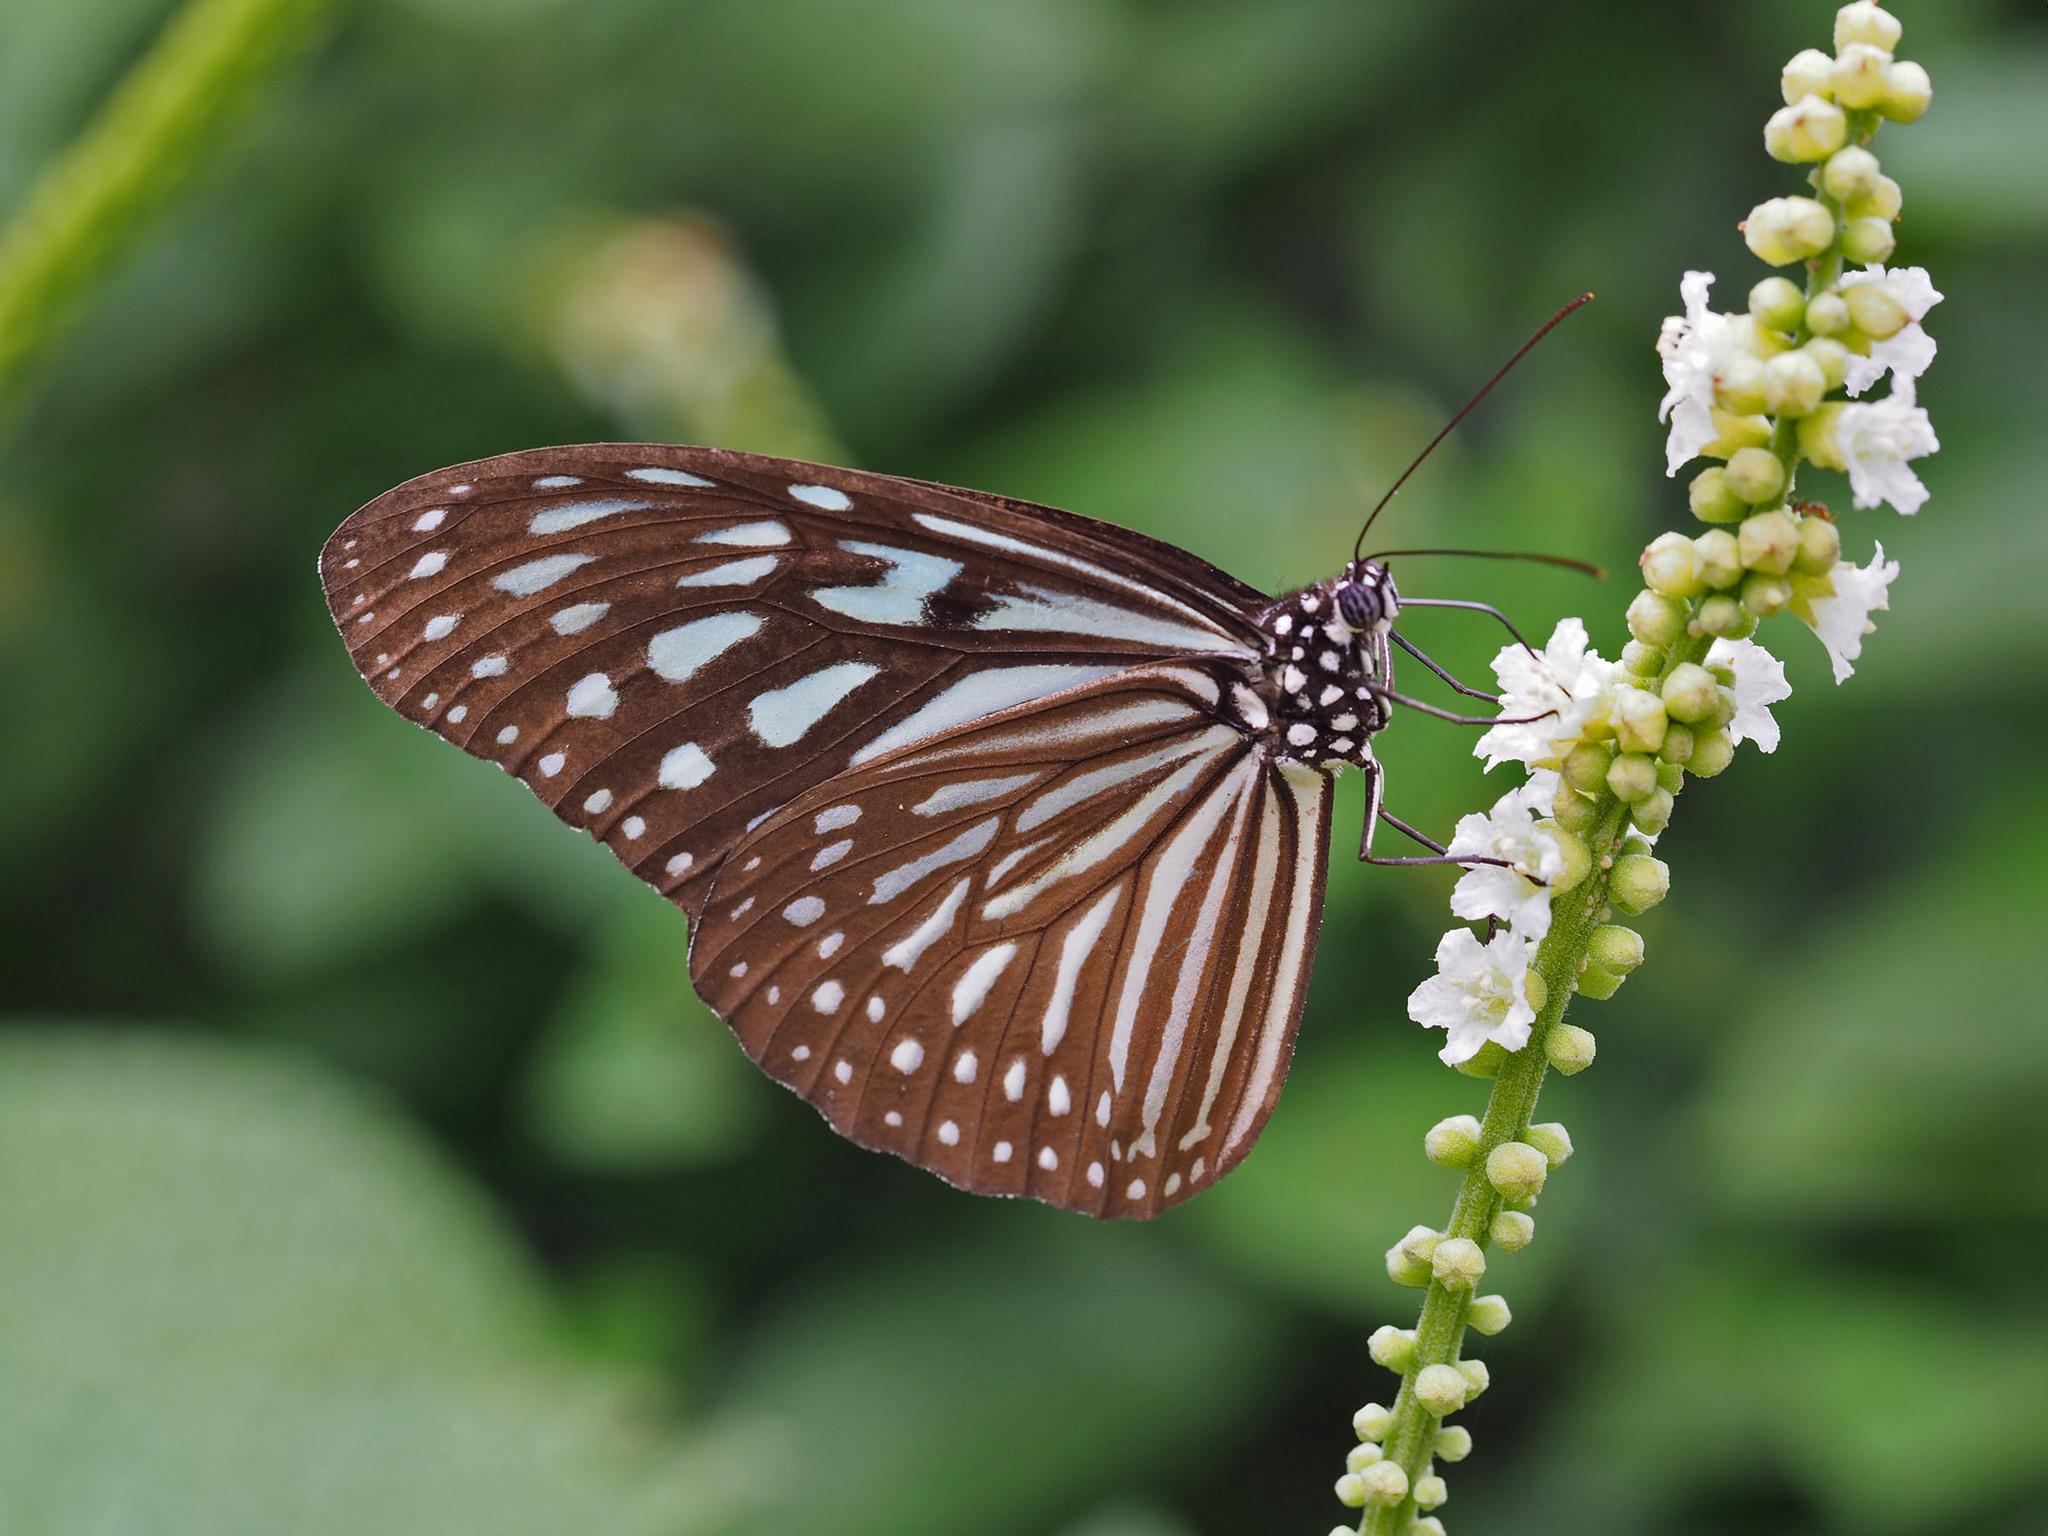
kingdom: Animalia
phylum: Arthropoda
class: Insecta
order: Lepidoptera
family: Nymphalidae
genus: Ideopsis
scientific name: Ideopsis vulgaris
